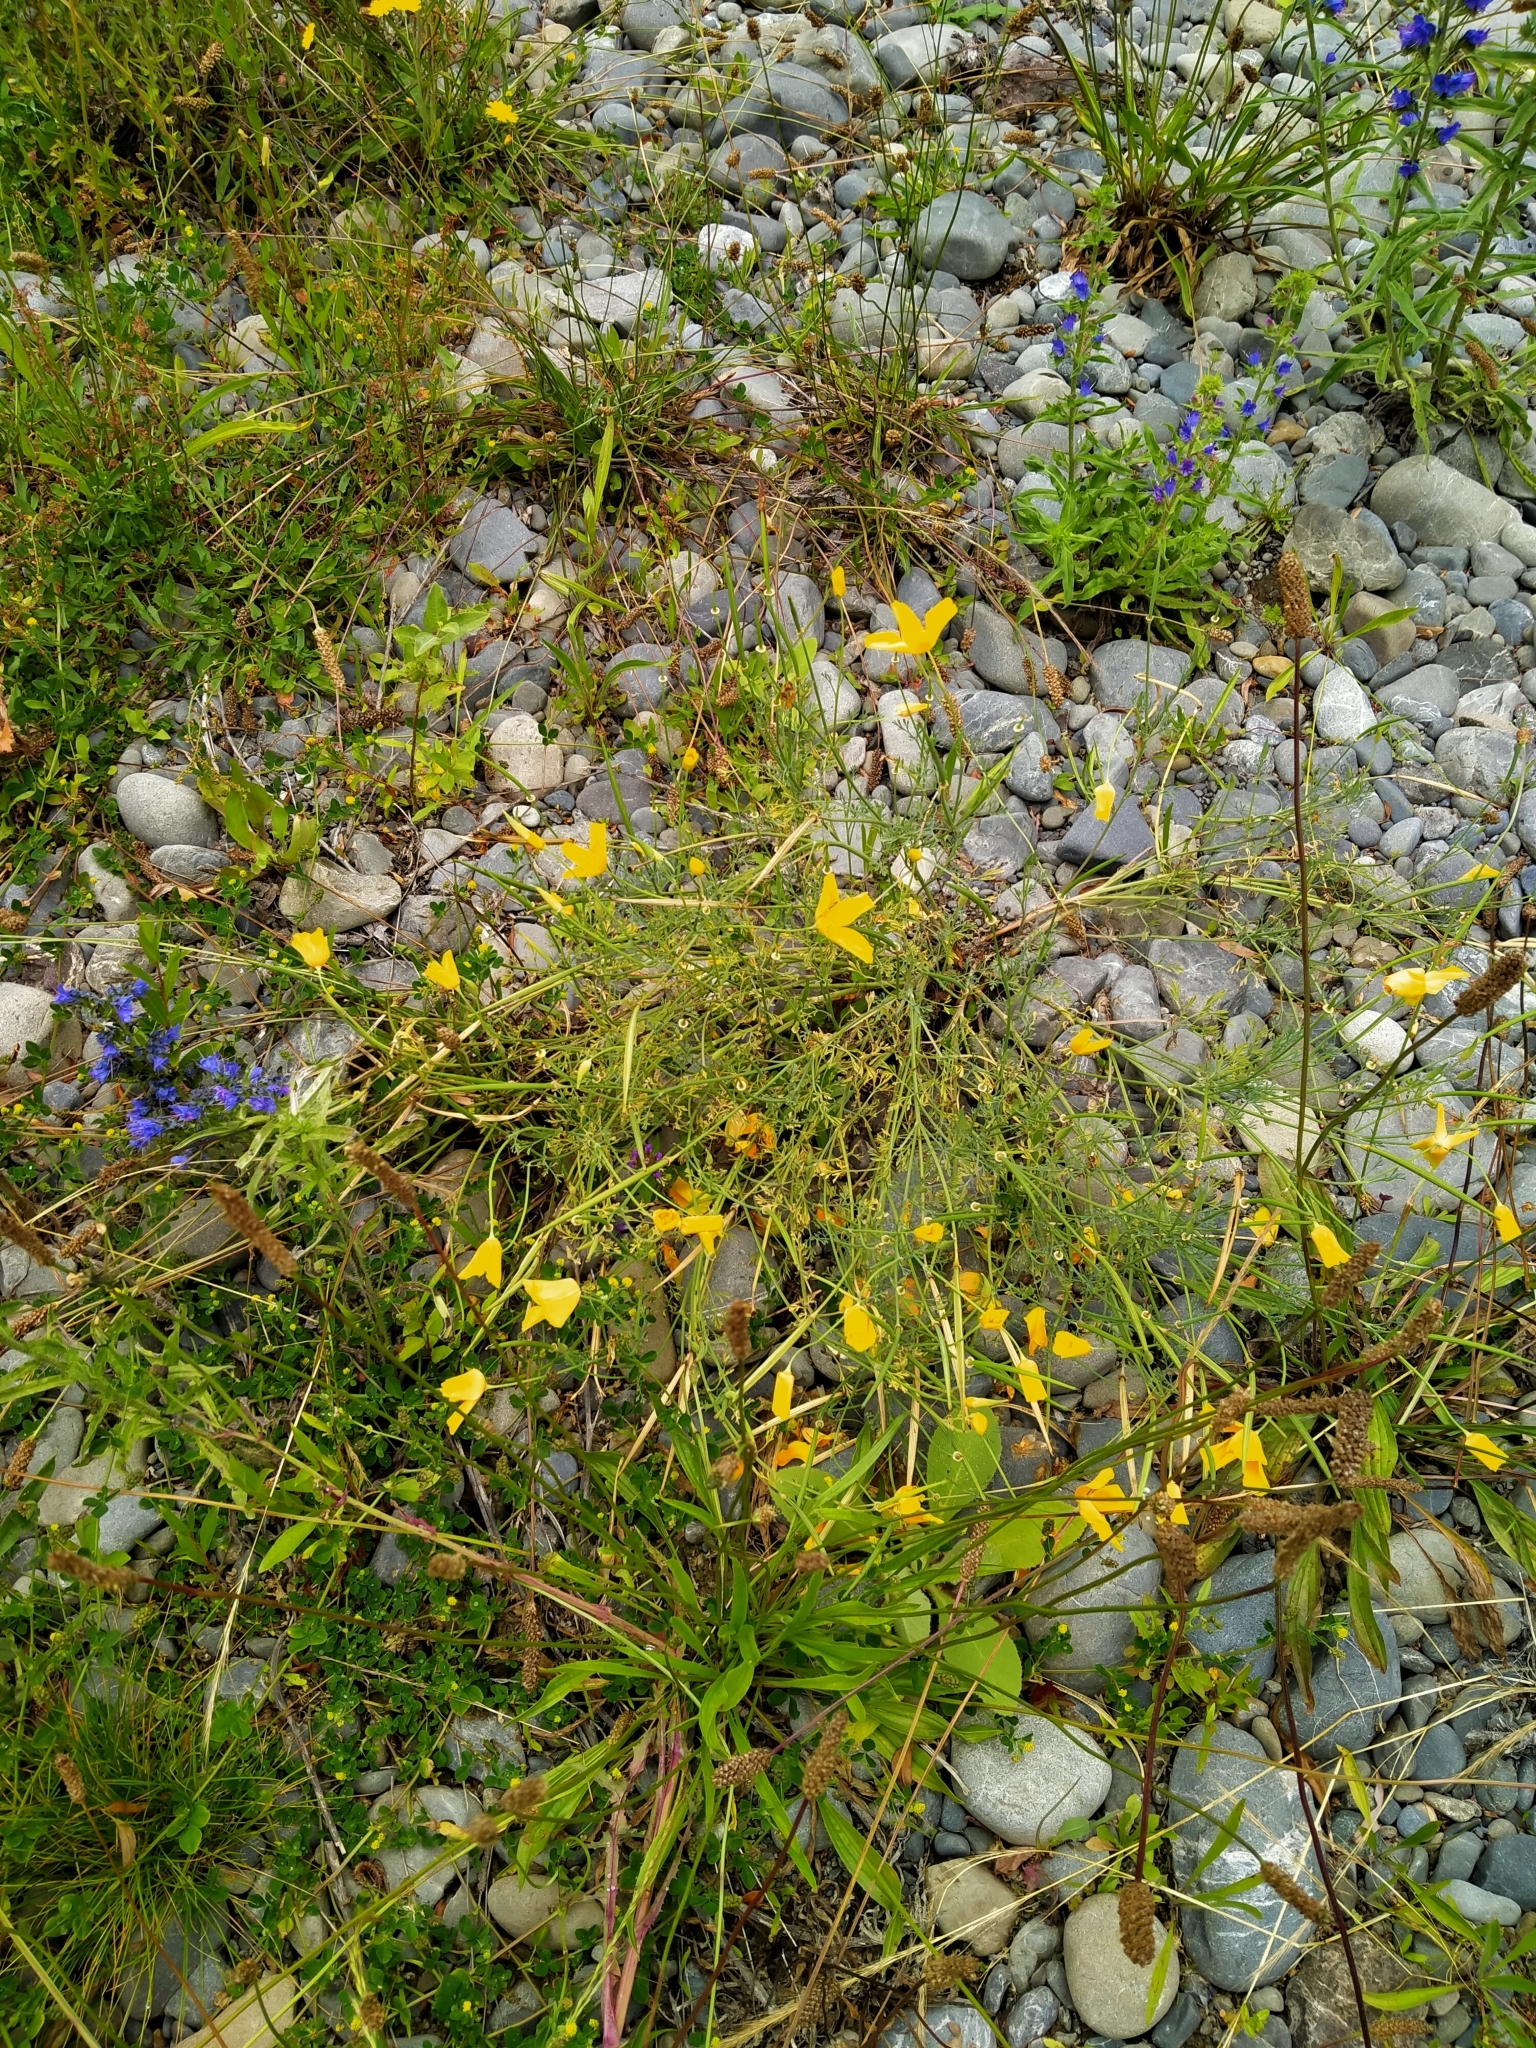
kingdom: Plantae
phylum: Tracheophyta
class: Magnoliopsida
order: Ranunculales
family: Papaveraceae
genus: Eschscholzia
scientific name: Eschscholzia californica
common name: California poppy
